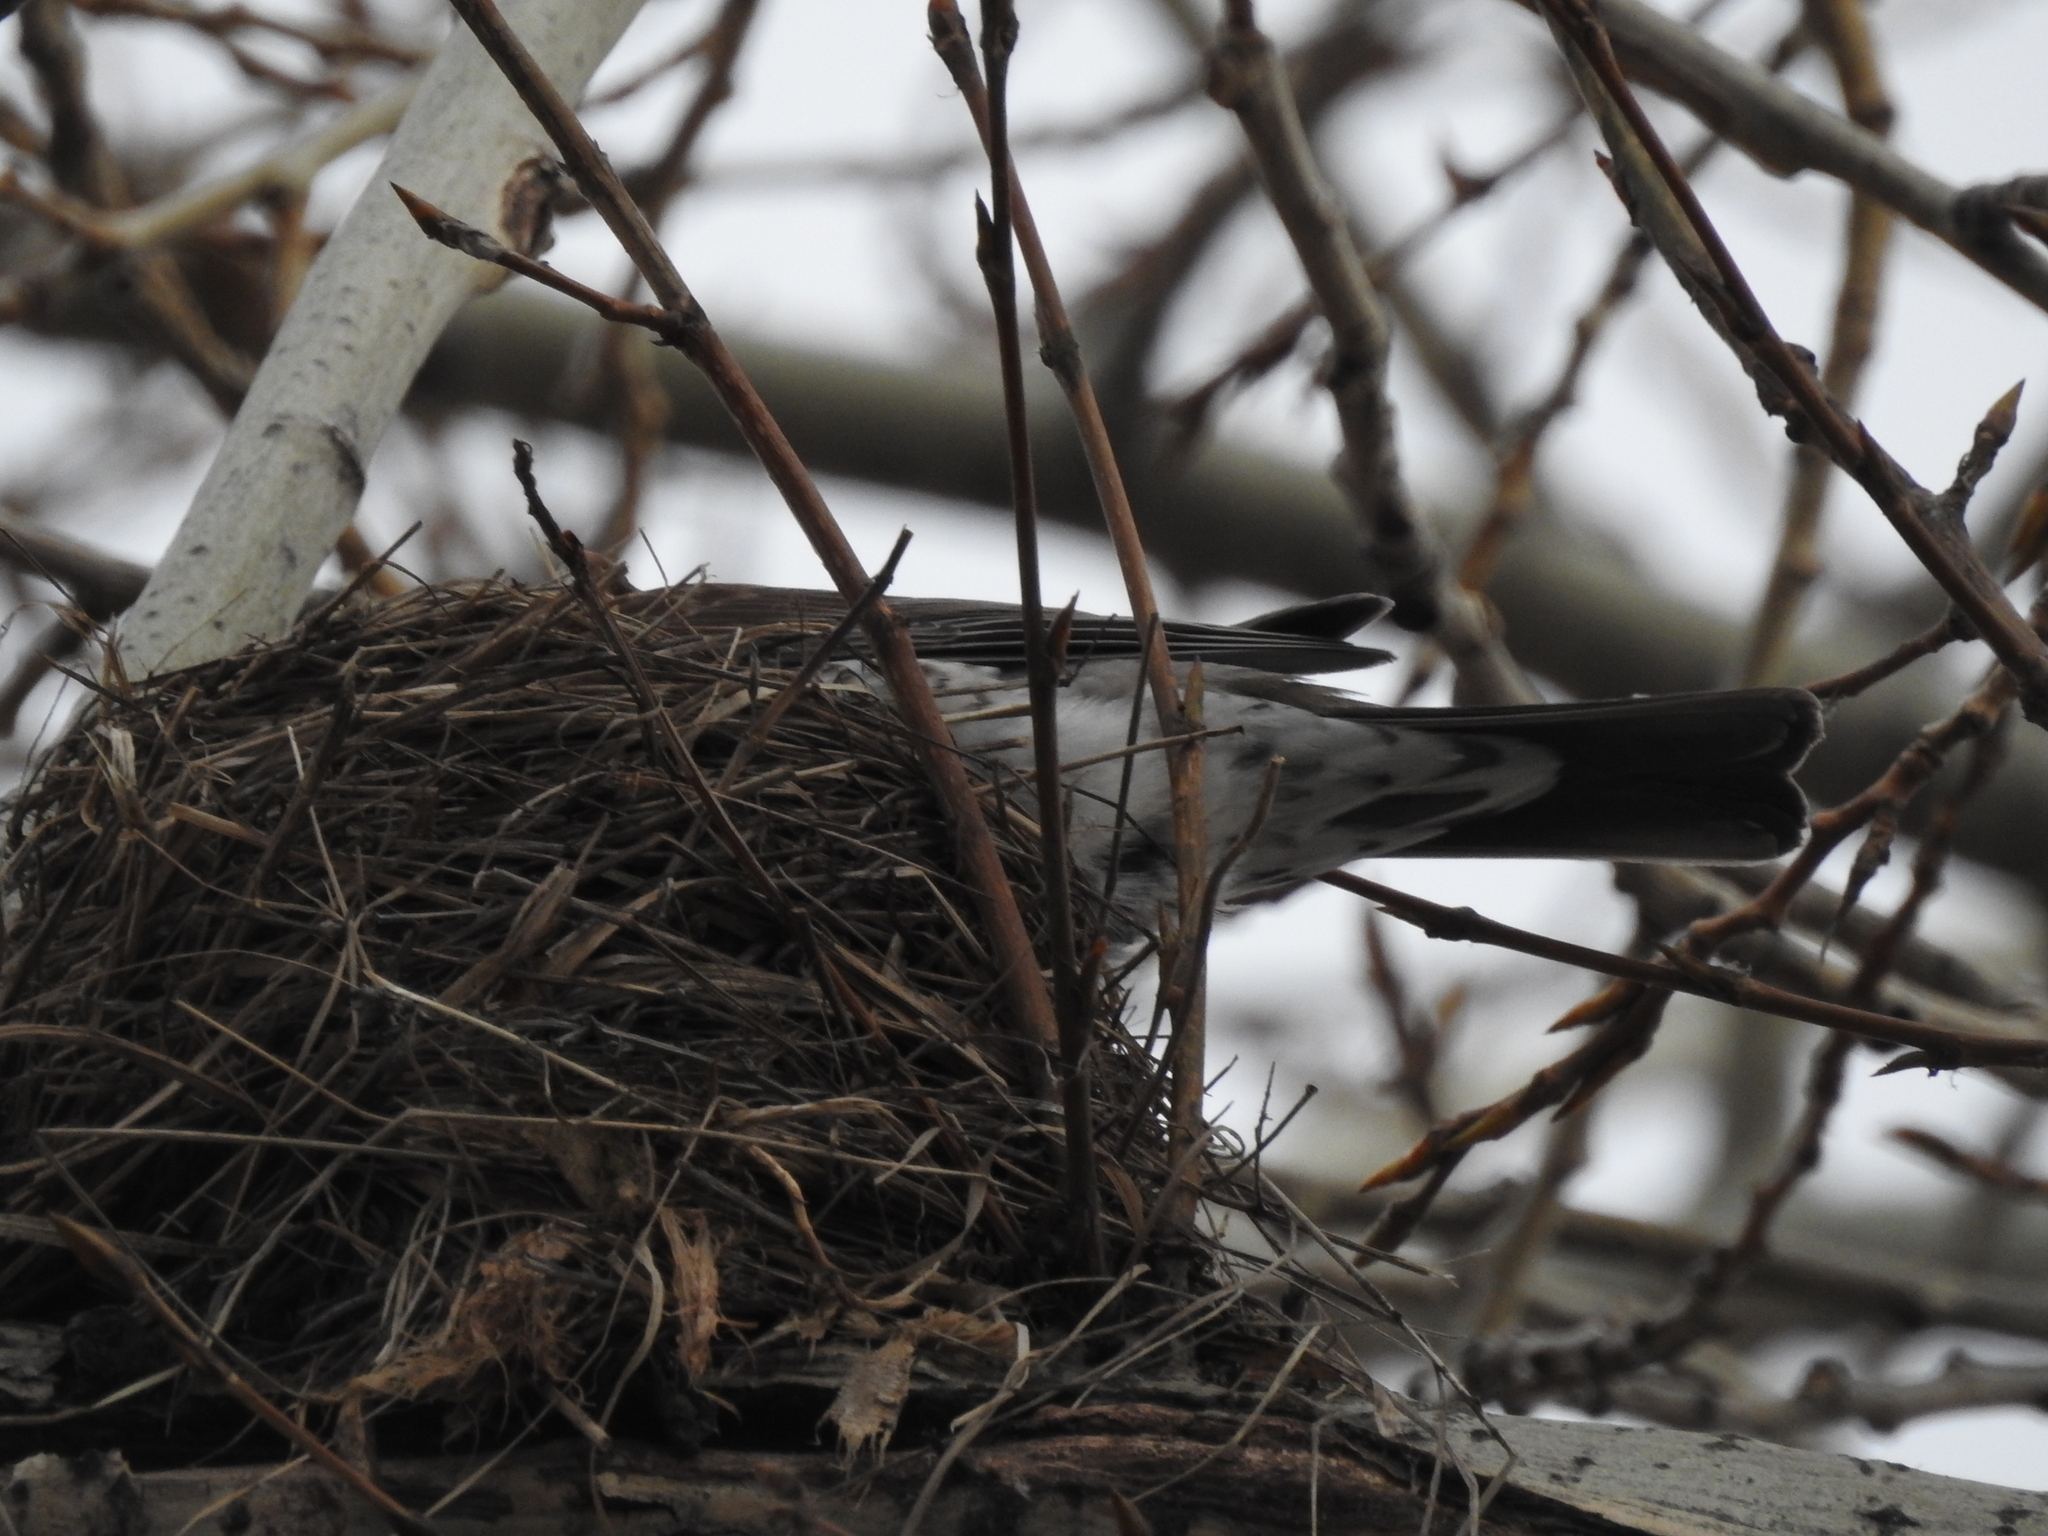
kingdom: Animalia
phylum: Chordata
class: Aves
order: Passeriformes
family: Turdidae
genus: Turdus
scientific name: Turdus pilaris
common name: Fieldfare
